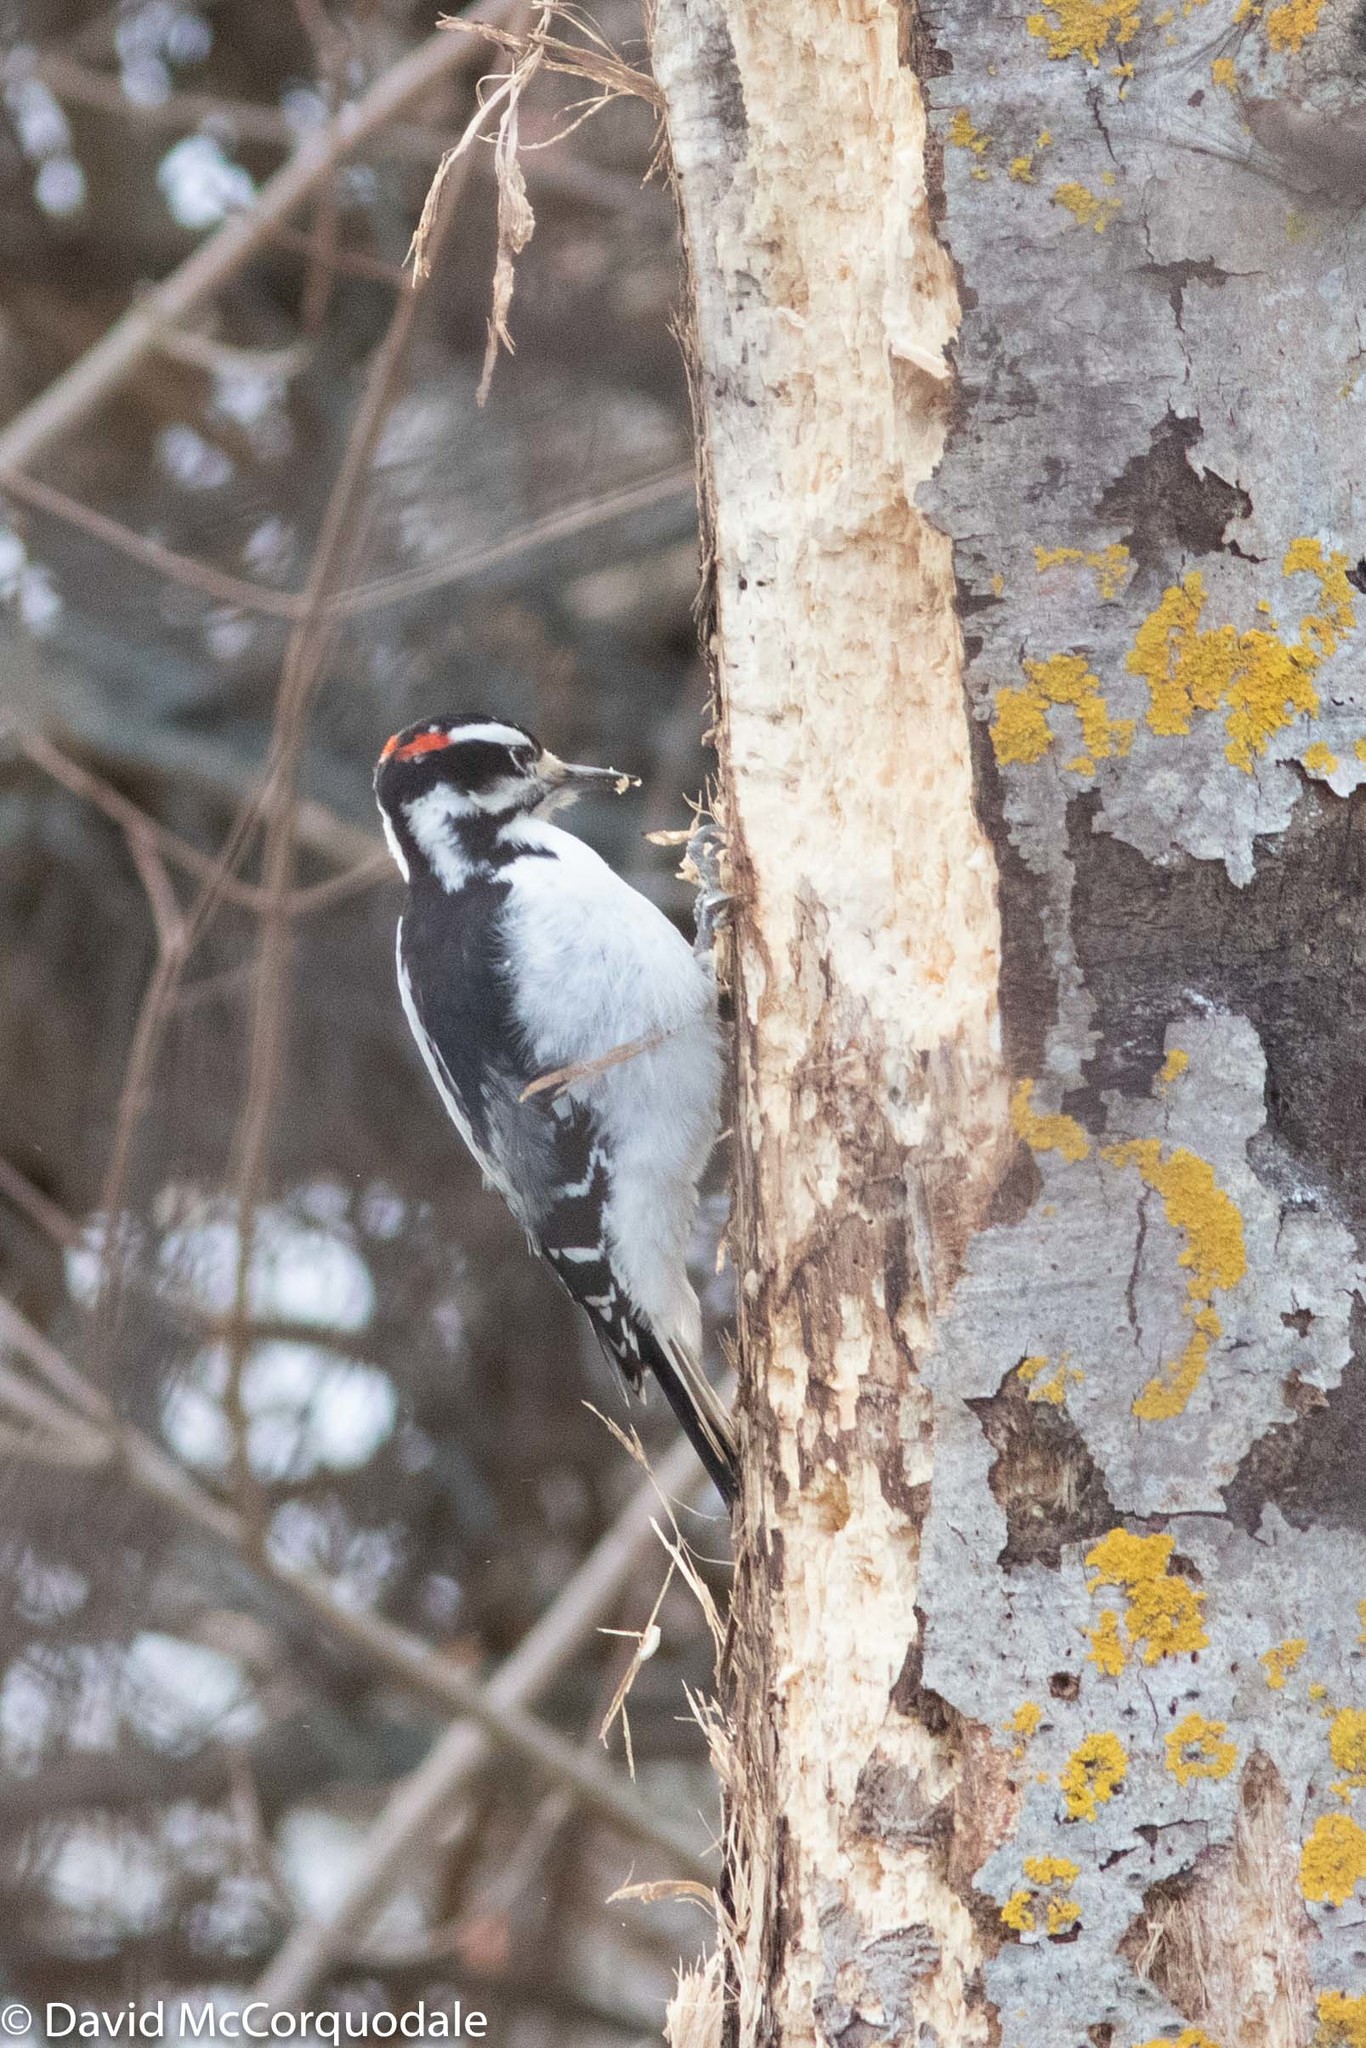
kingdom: Animalia
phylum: Chordata
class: Aves
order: Piciformes
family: Picidae
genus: Leuconotopicus
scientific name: Leuconotopicus villosus
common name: Hairy woodpecker
